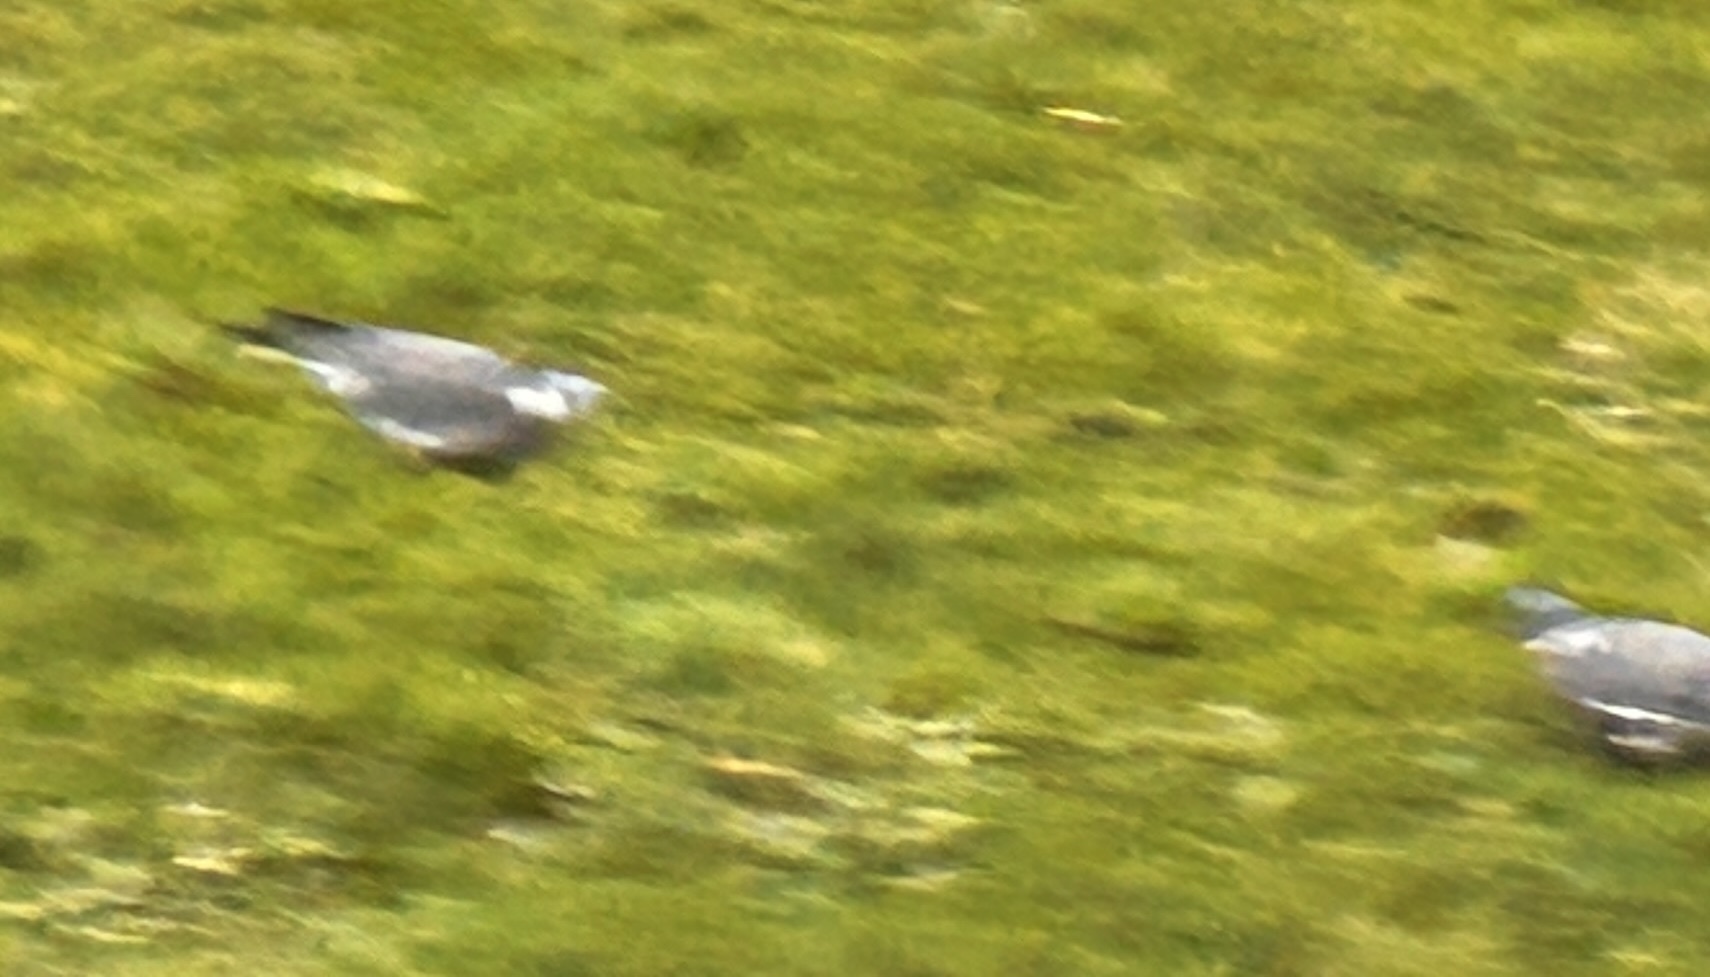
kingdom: Animalia
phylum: Chordata
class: Aves
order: Columbiformes
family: Columbidae
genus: Columba
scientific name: Columba palumbus
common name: Common wood pigeon
